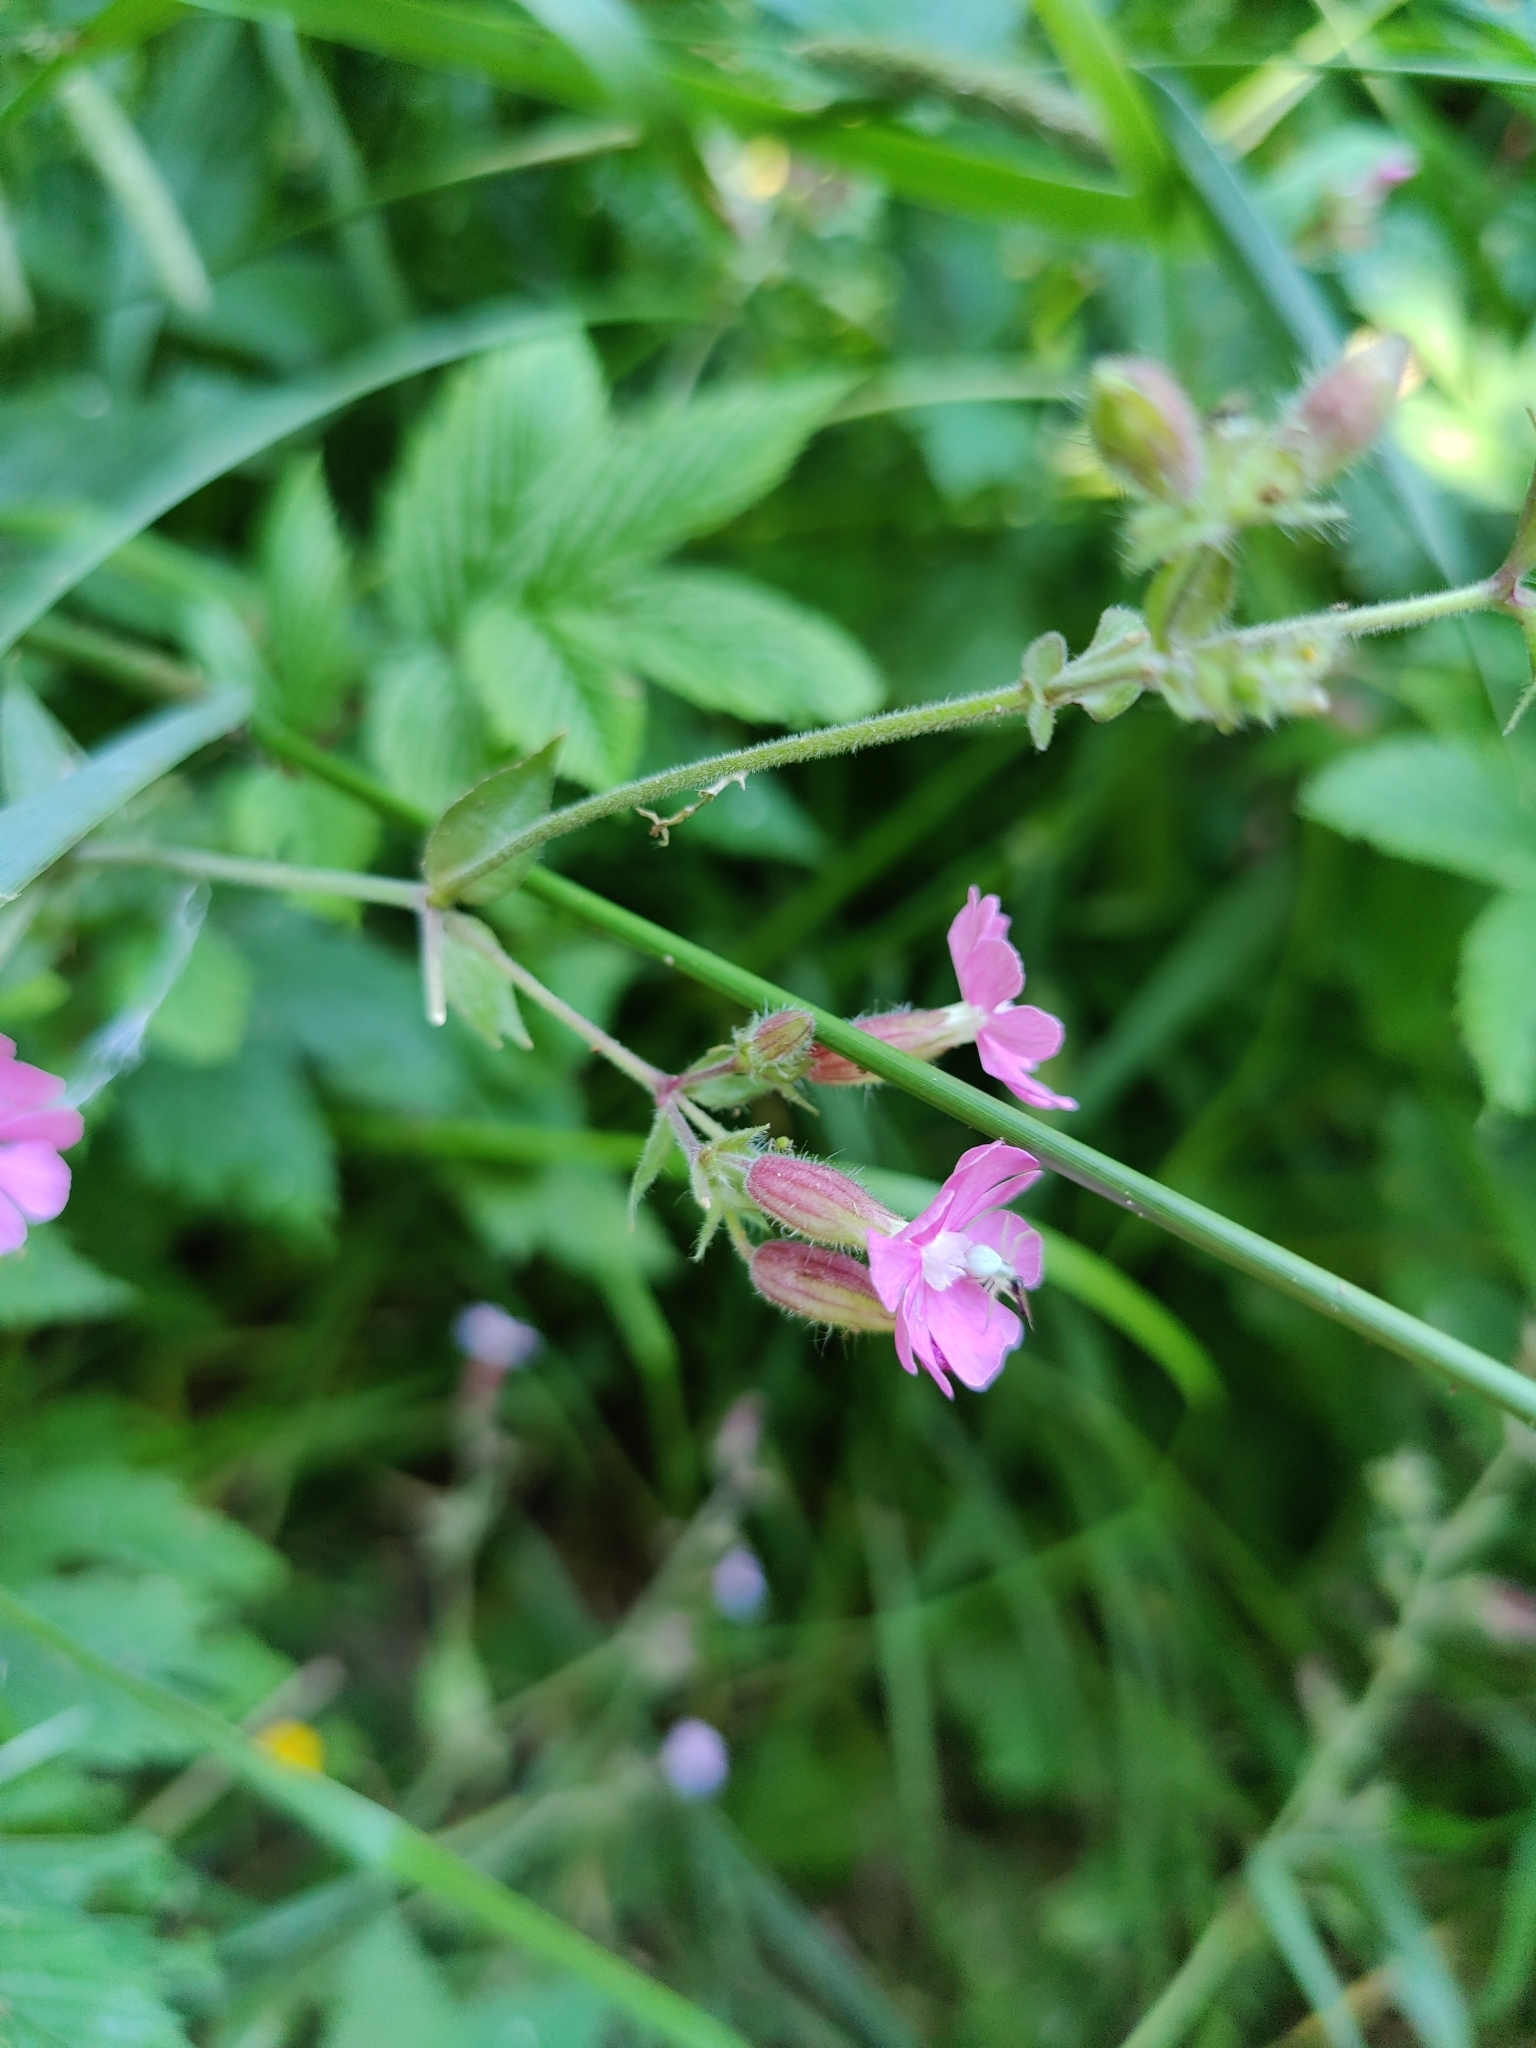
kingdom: Plantae
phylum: Tracheophyta
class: Magnoliopsida
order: Caryophyllales
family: Caryophyllaceae
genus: Silene
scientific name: Silene dioica
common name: Red campion
